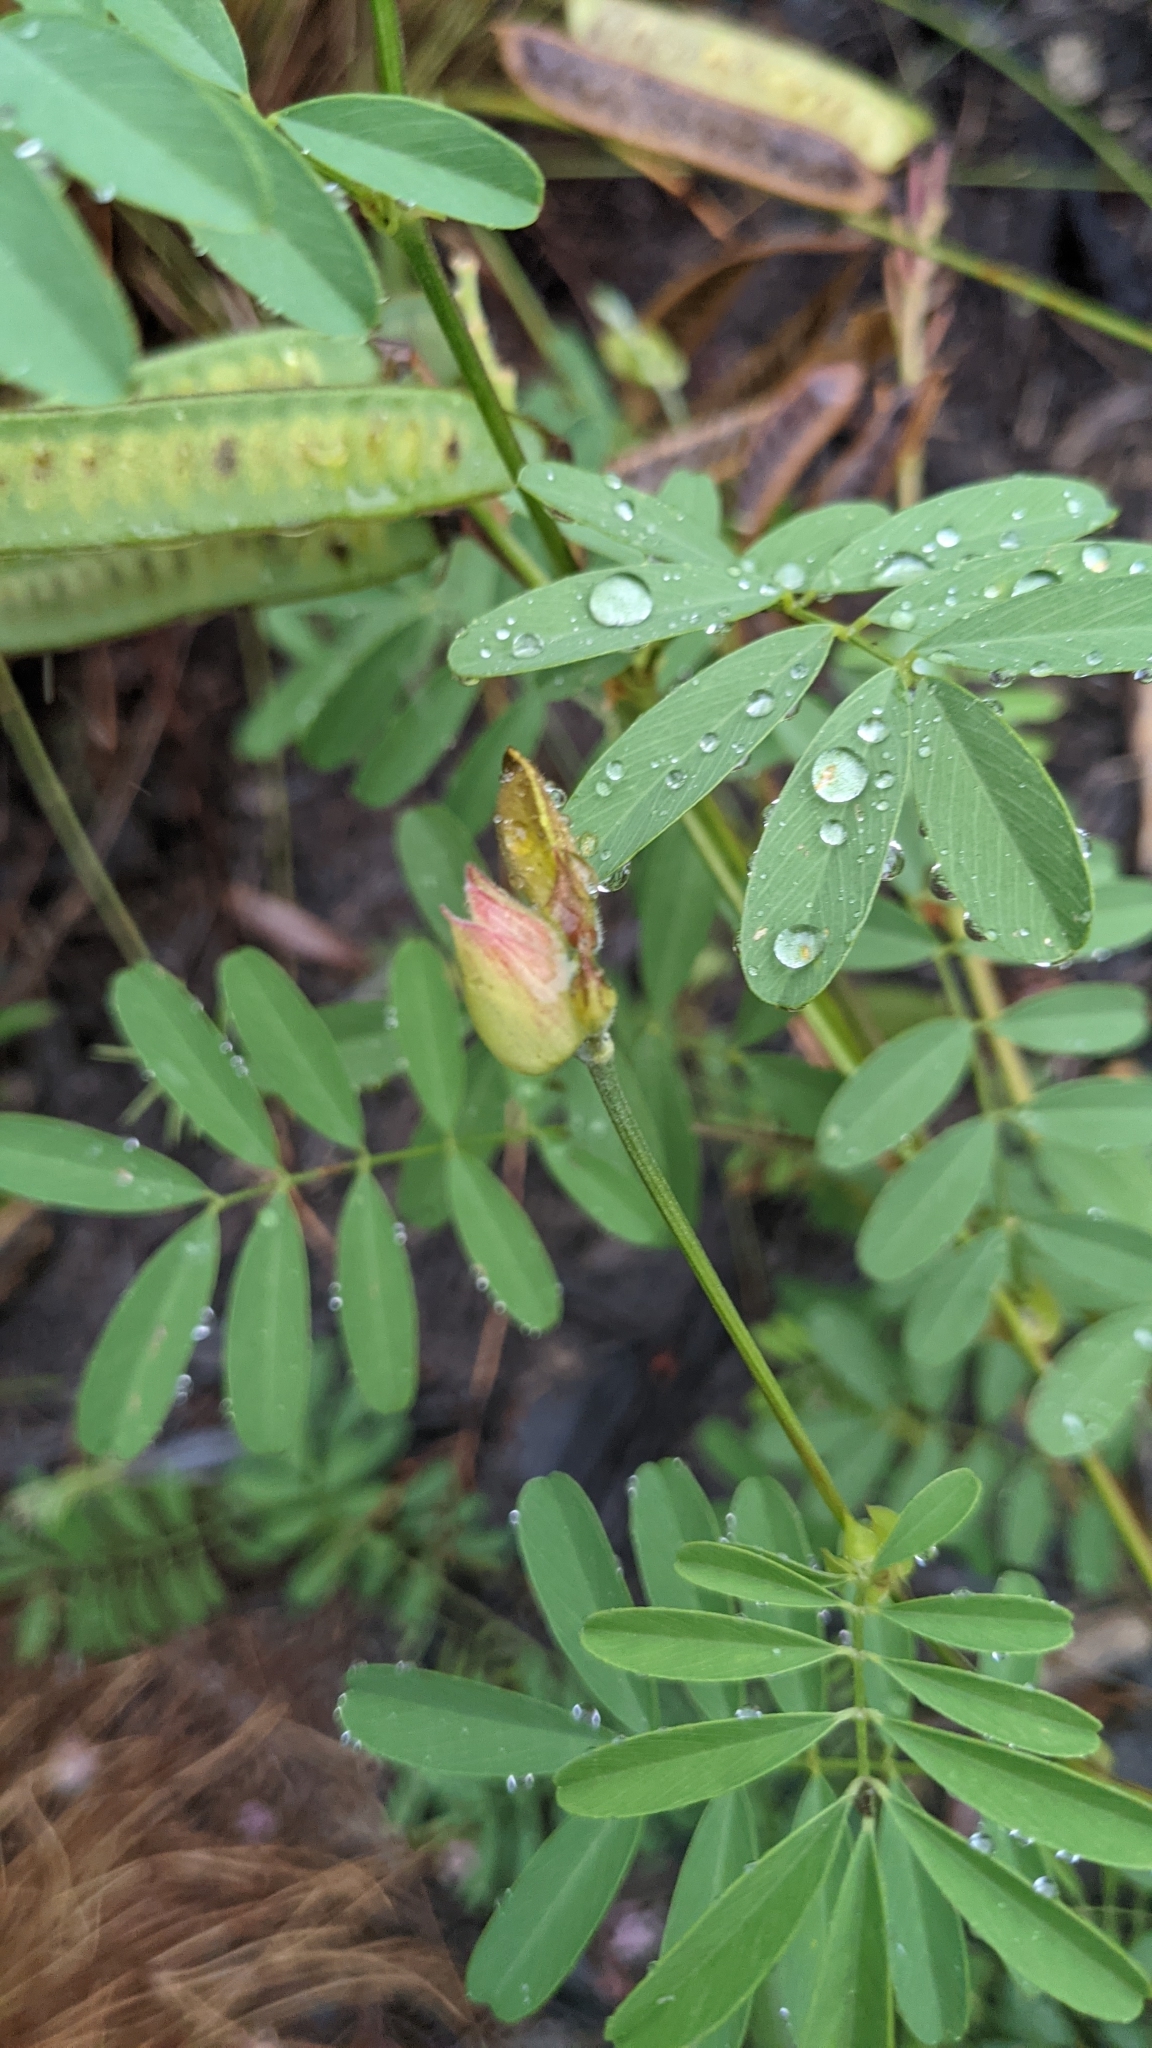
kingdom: Plantae
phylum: Tracheophyta
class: Magnoliopsida
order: Fabales
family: Fabaceae
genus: Tephrosia
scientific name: Tephrosia grandiflora
